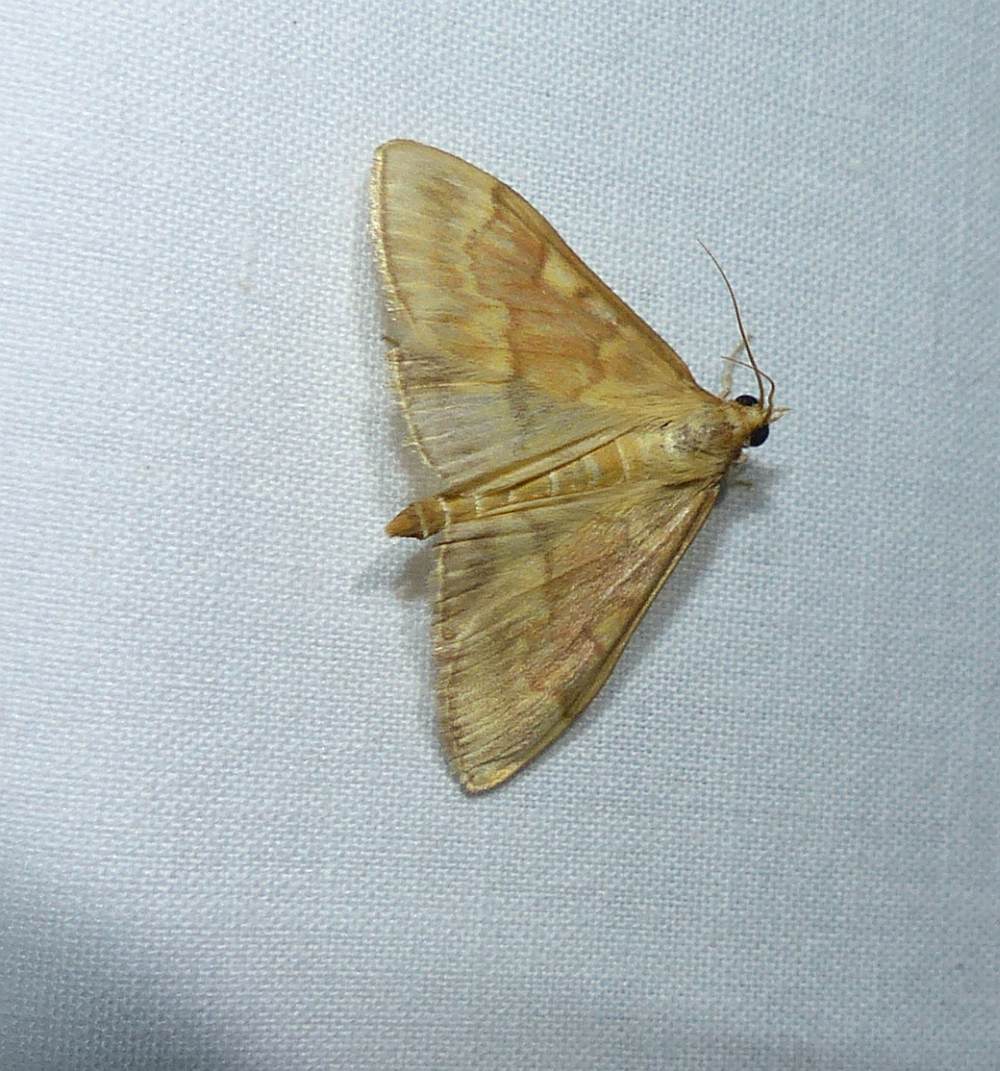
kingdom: Animalia
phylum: Arthropoda
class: Insecta
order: Lepidoptera
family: Crambidae
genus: Ostrinia
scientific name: Ostrinia nubilalis
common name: European corn borer
